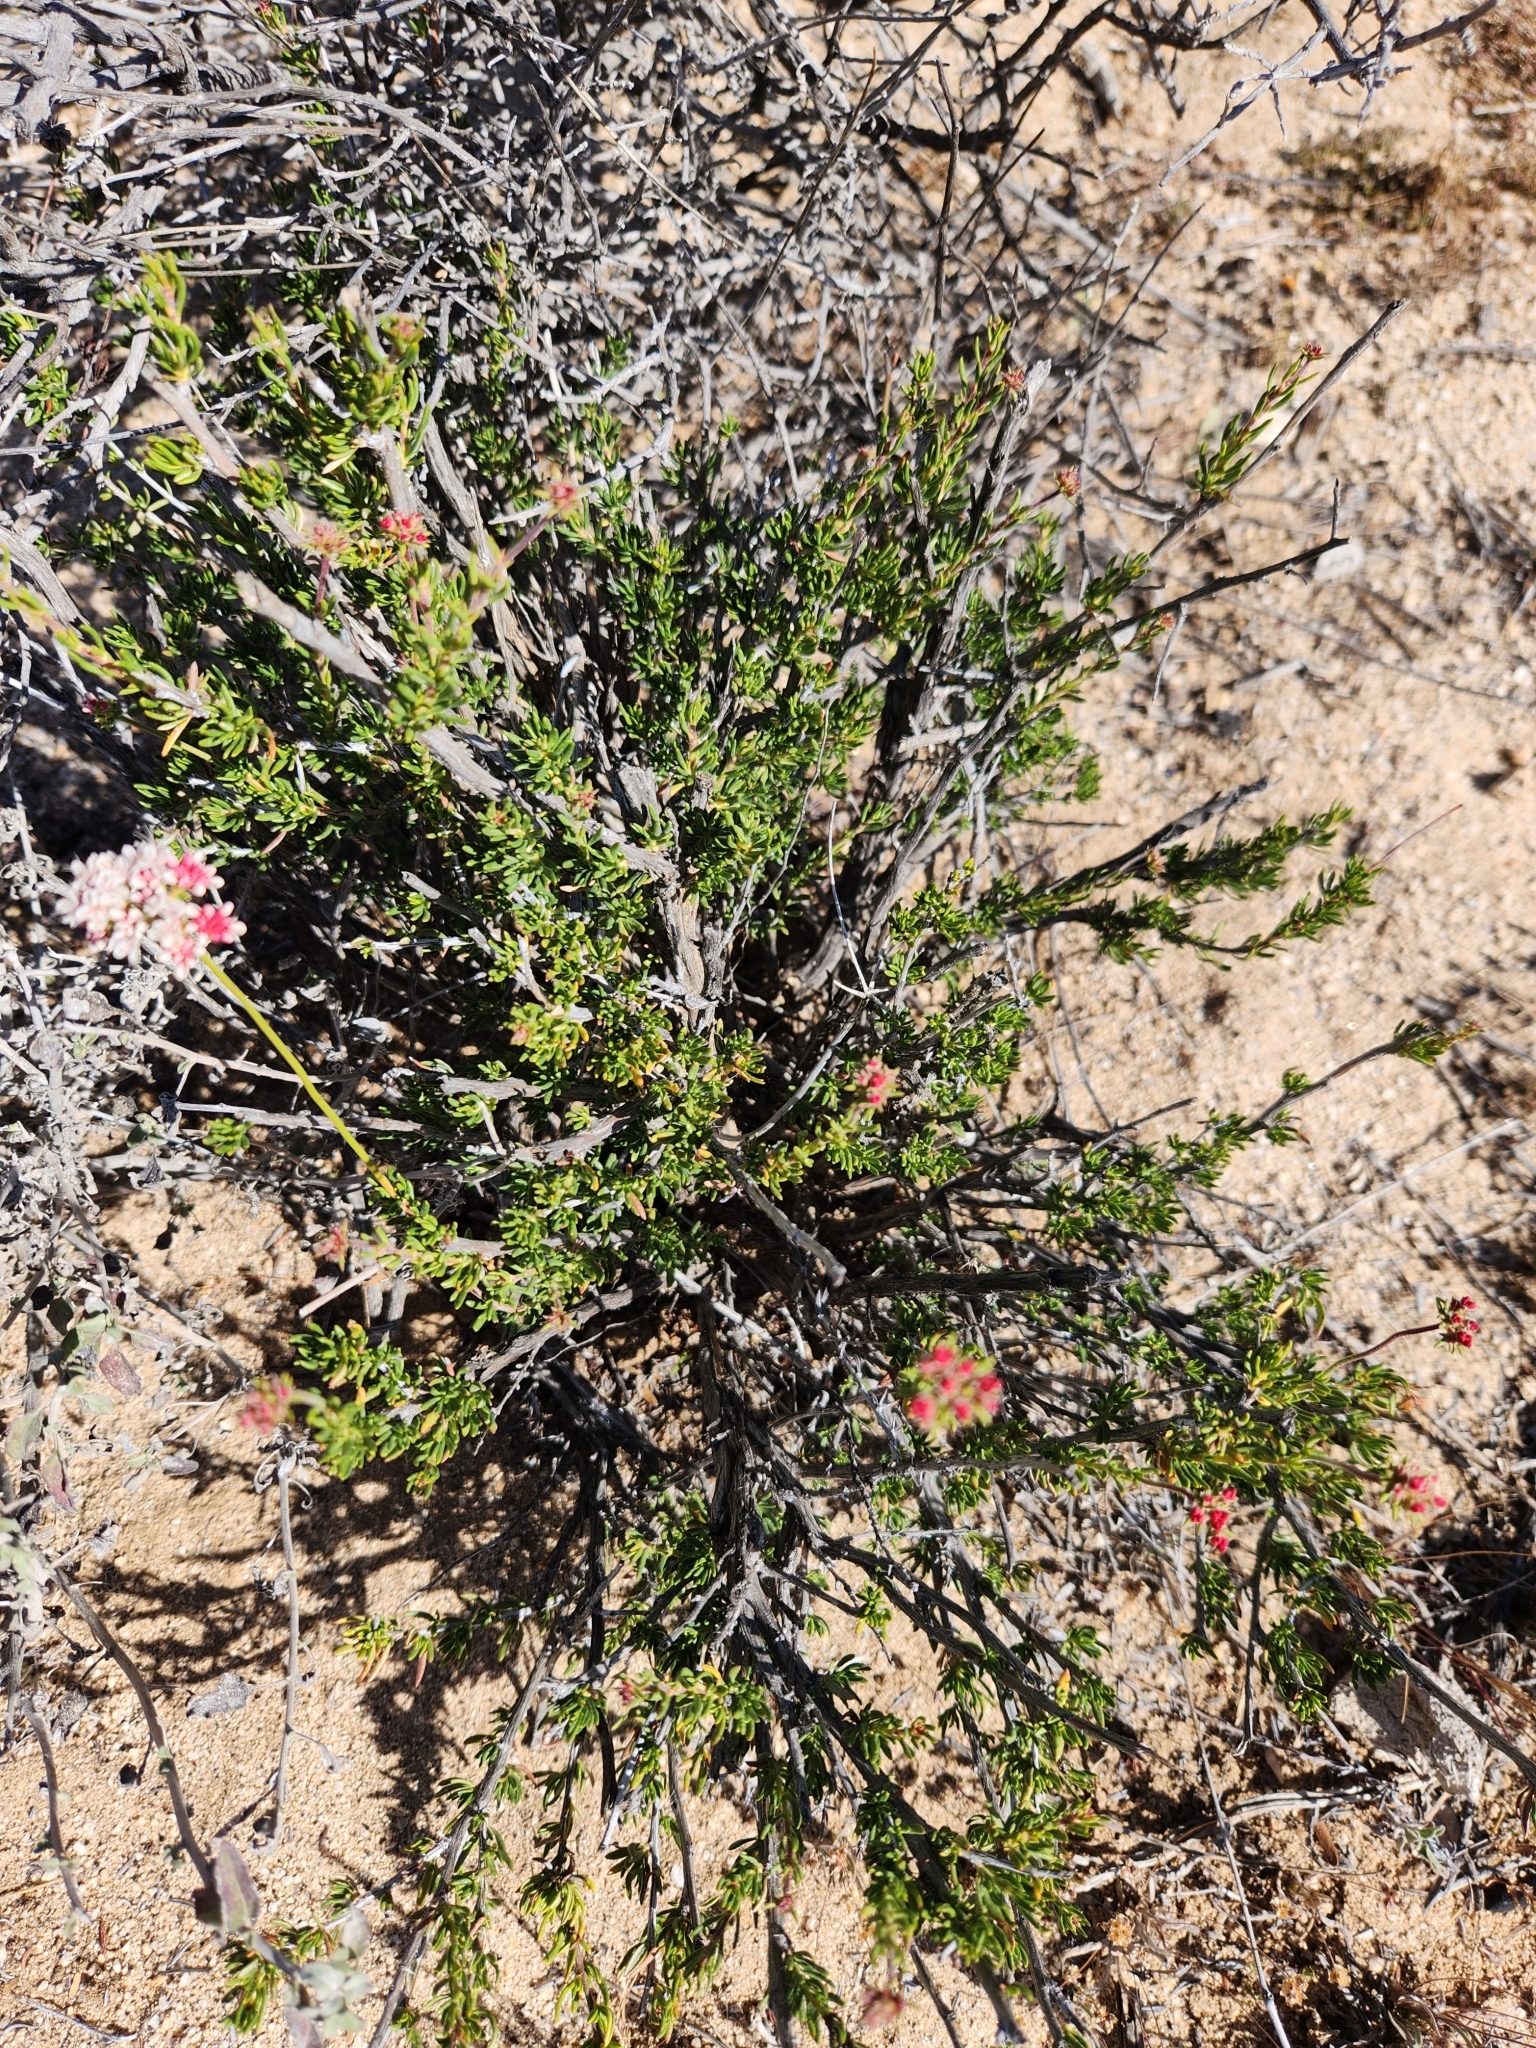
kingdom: Plantae
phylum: Tracheophyta
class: Magnoliopsida
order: Caryophyllales
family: Polygonaceae
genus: Eriogonum
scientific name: Eriogonum fasciculatum
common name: California wild buckwheat
